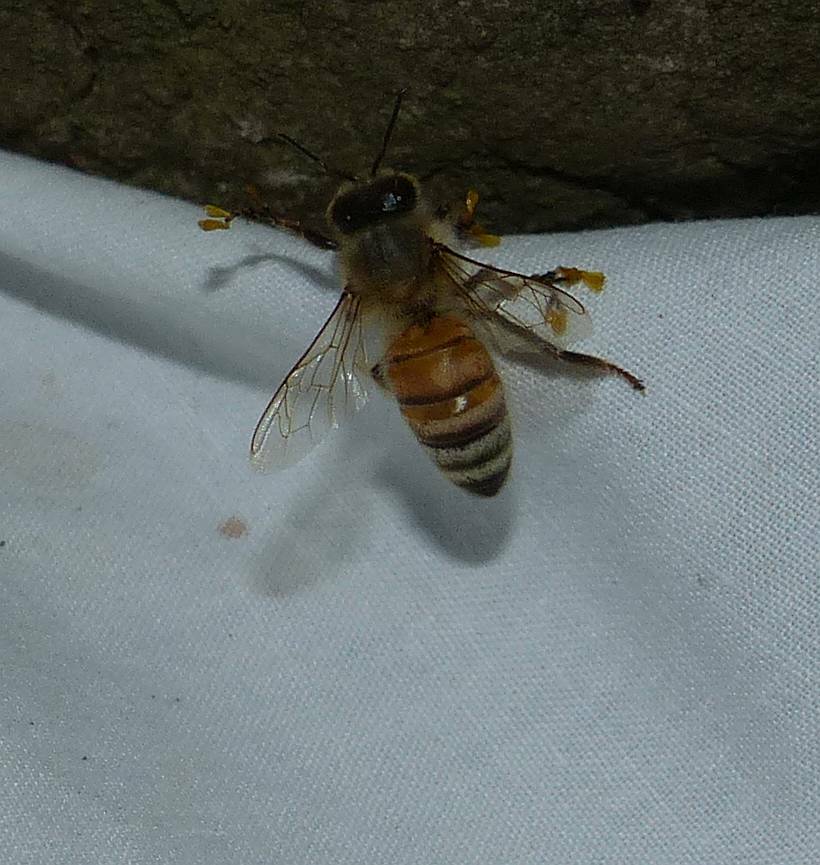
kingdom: Animalia
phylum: Arthropoda
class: Insecta
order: Hymenoptera
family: Apidae
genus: Apis
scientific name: Apis mellifera
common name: Honey bee
